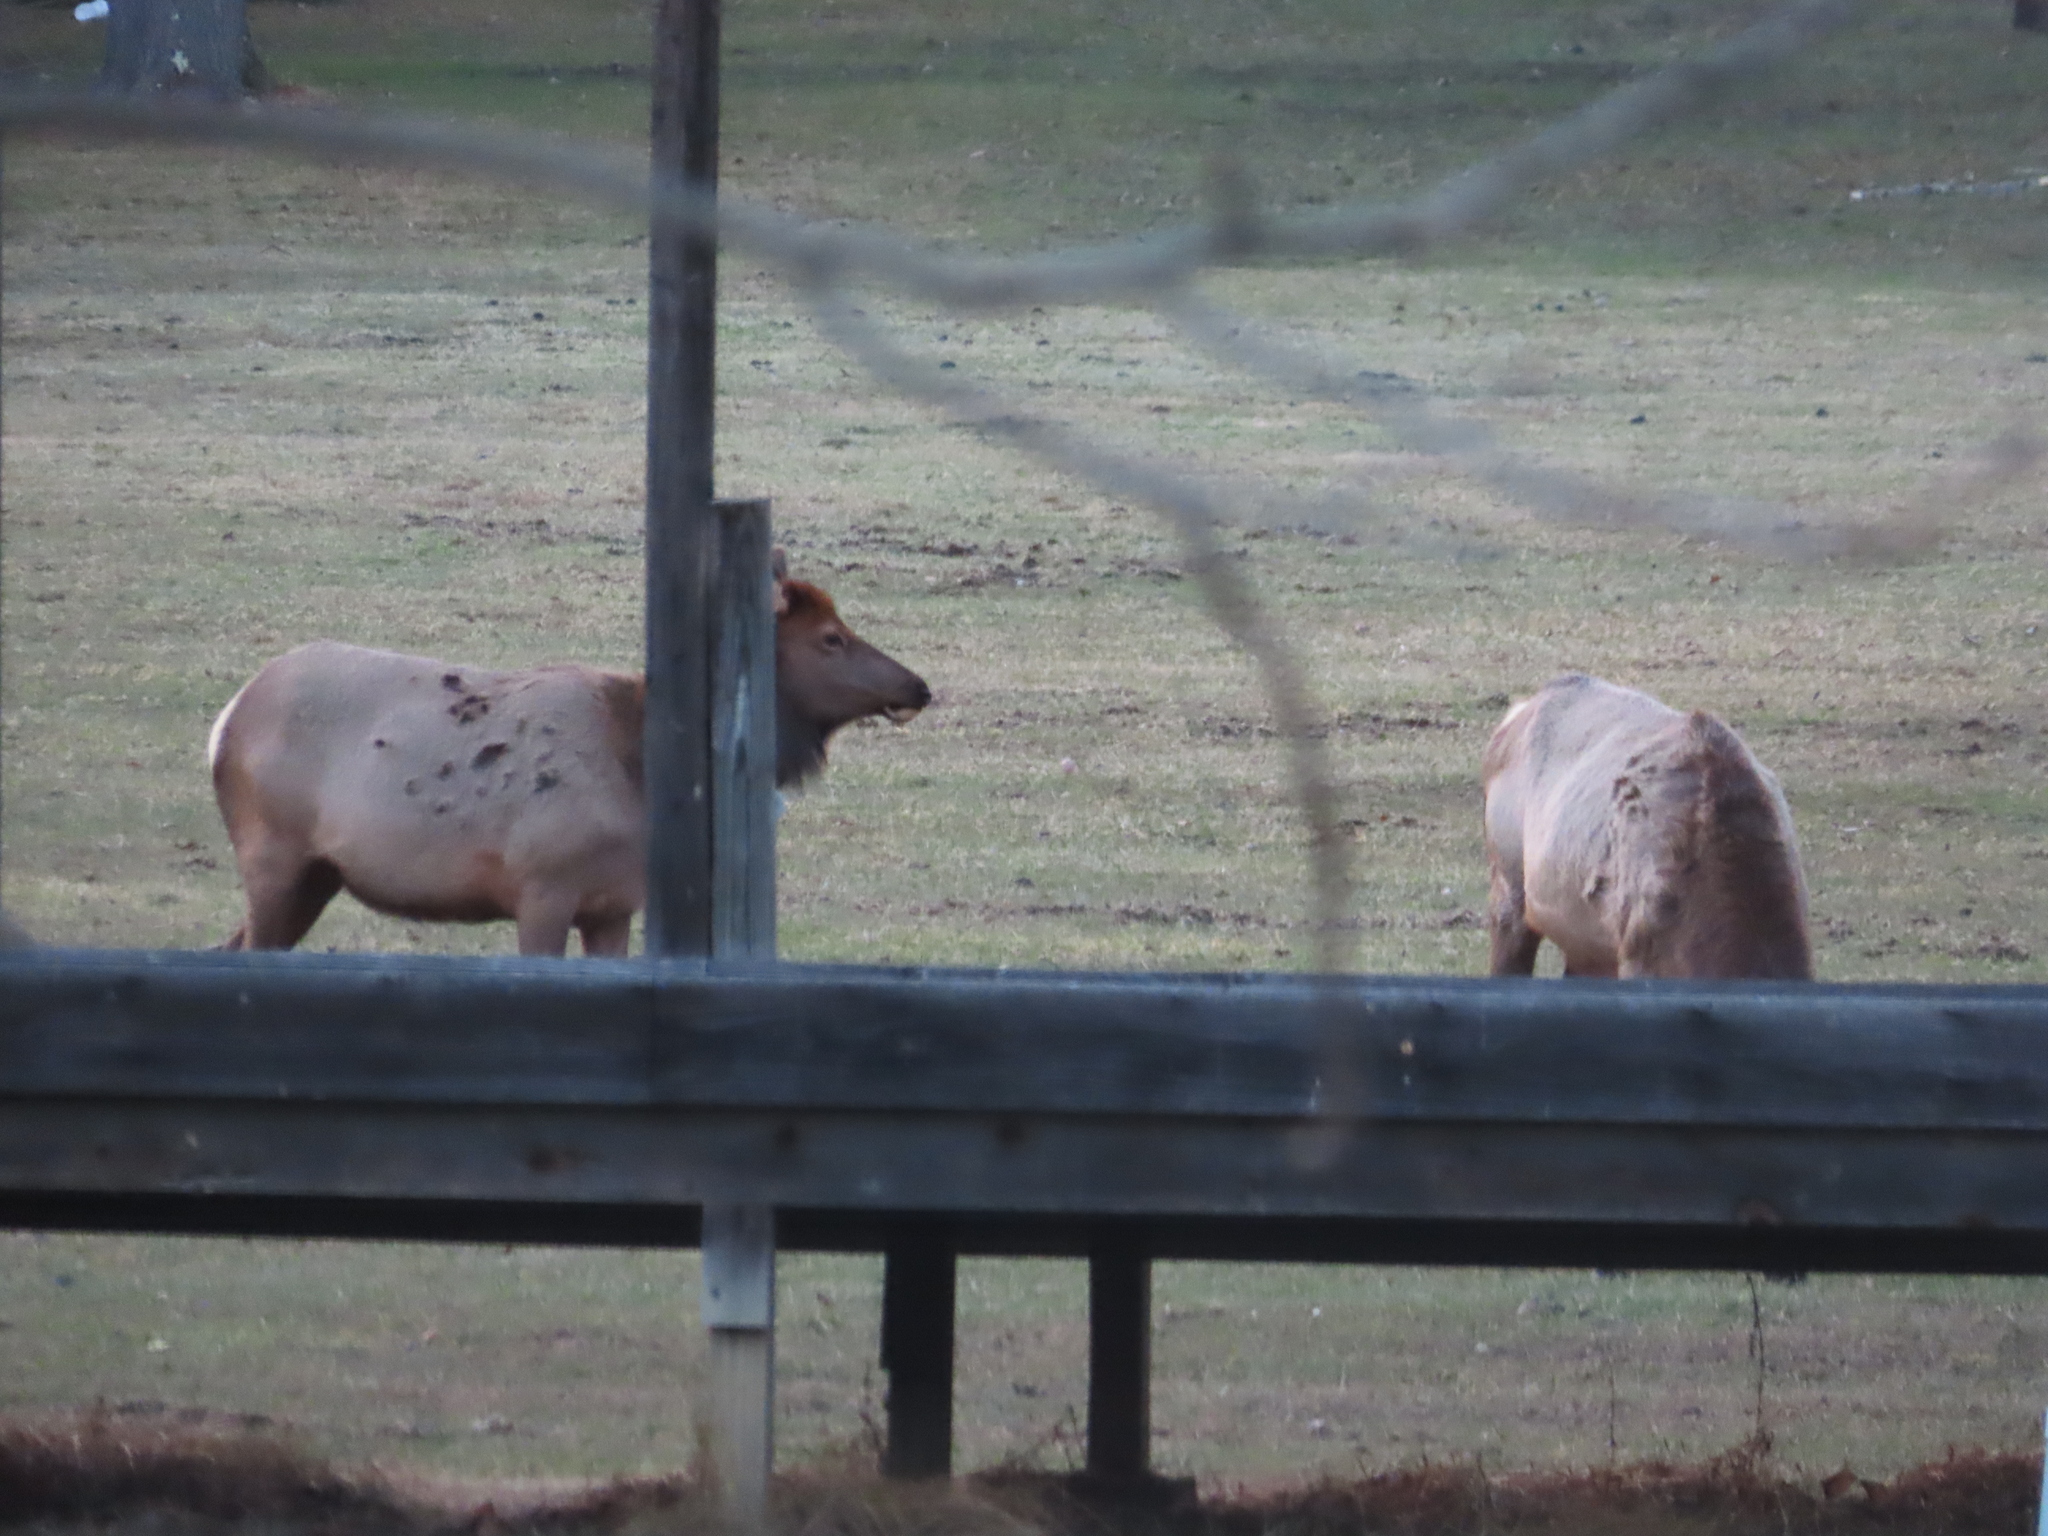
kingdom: Animalia
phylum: Chordata
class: Mammalia
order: Artiodactyla
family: Cervidae
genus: Cervus
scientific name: Cervus elaphus
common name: Red deer
